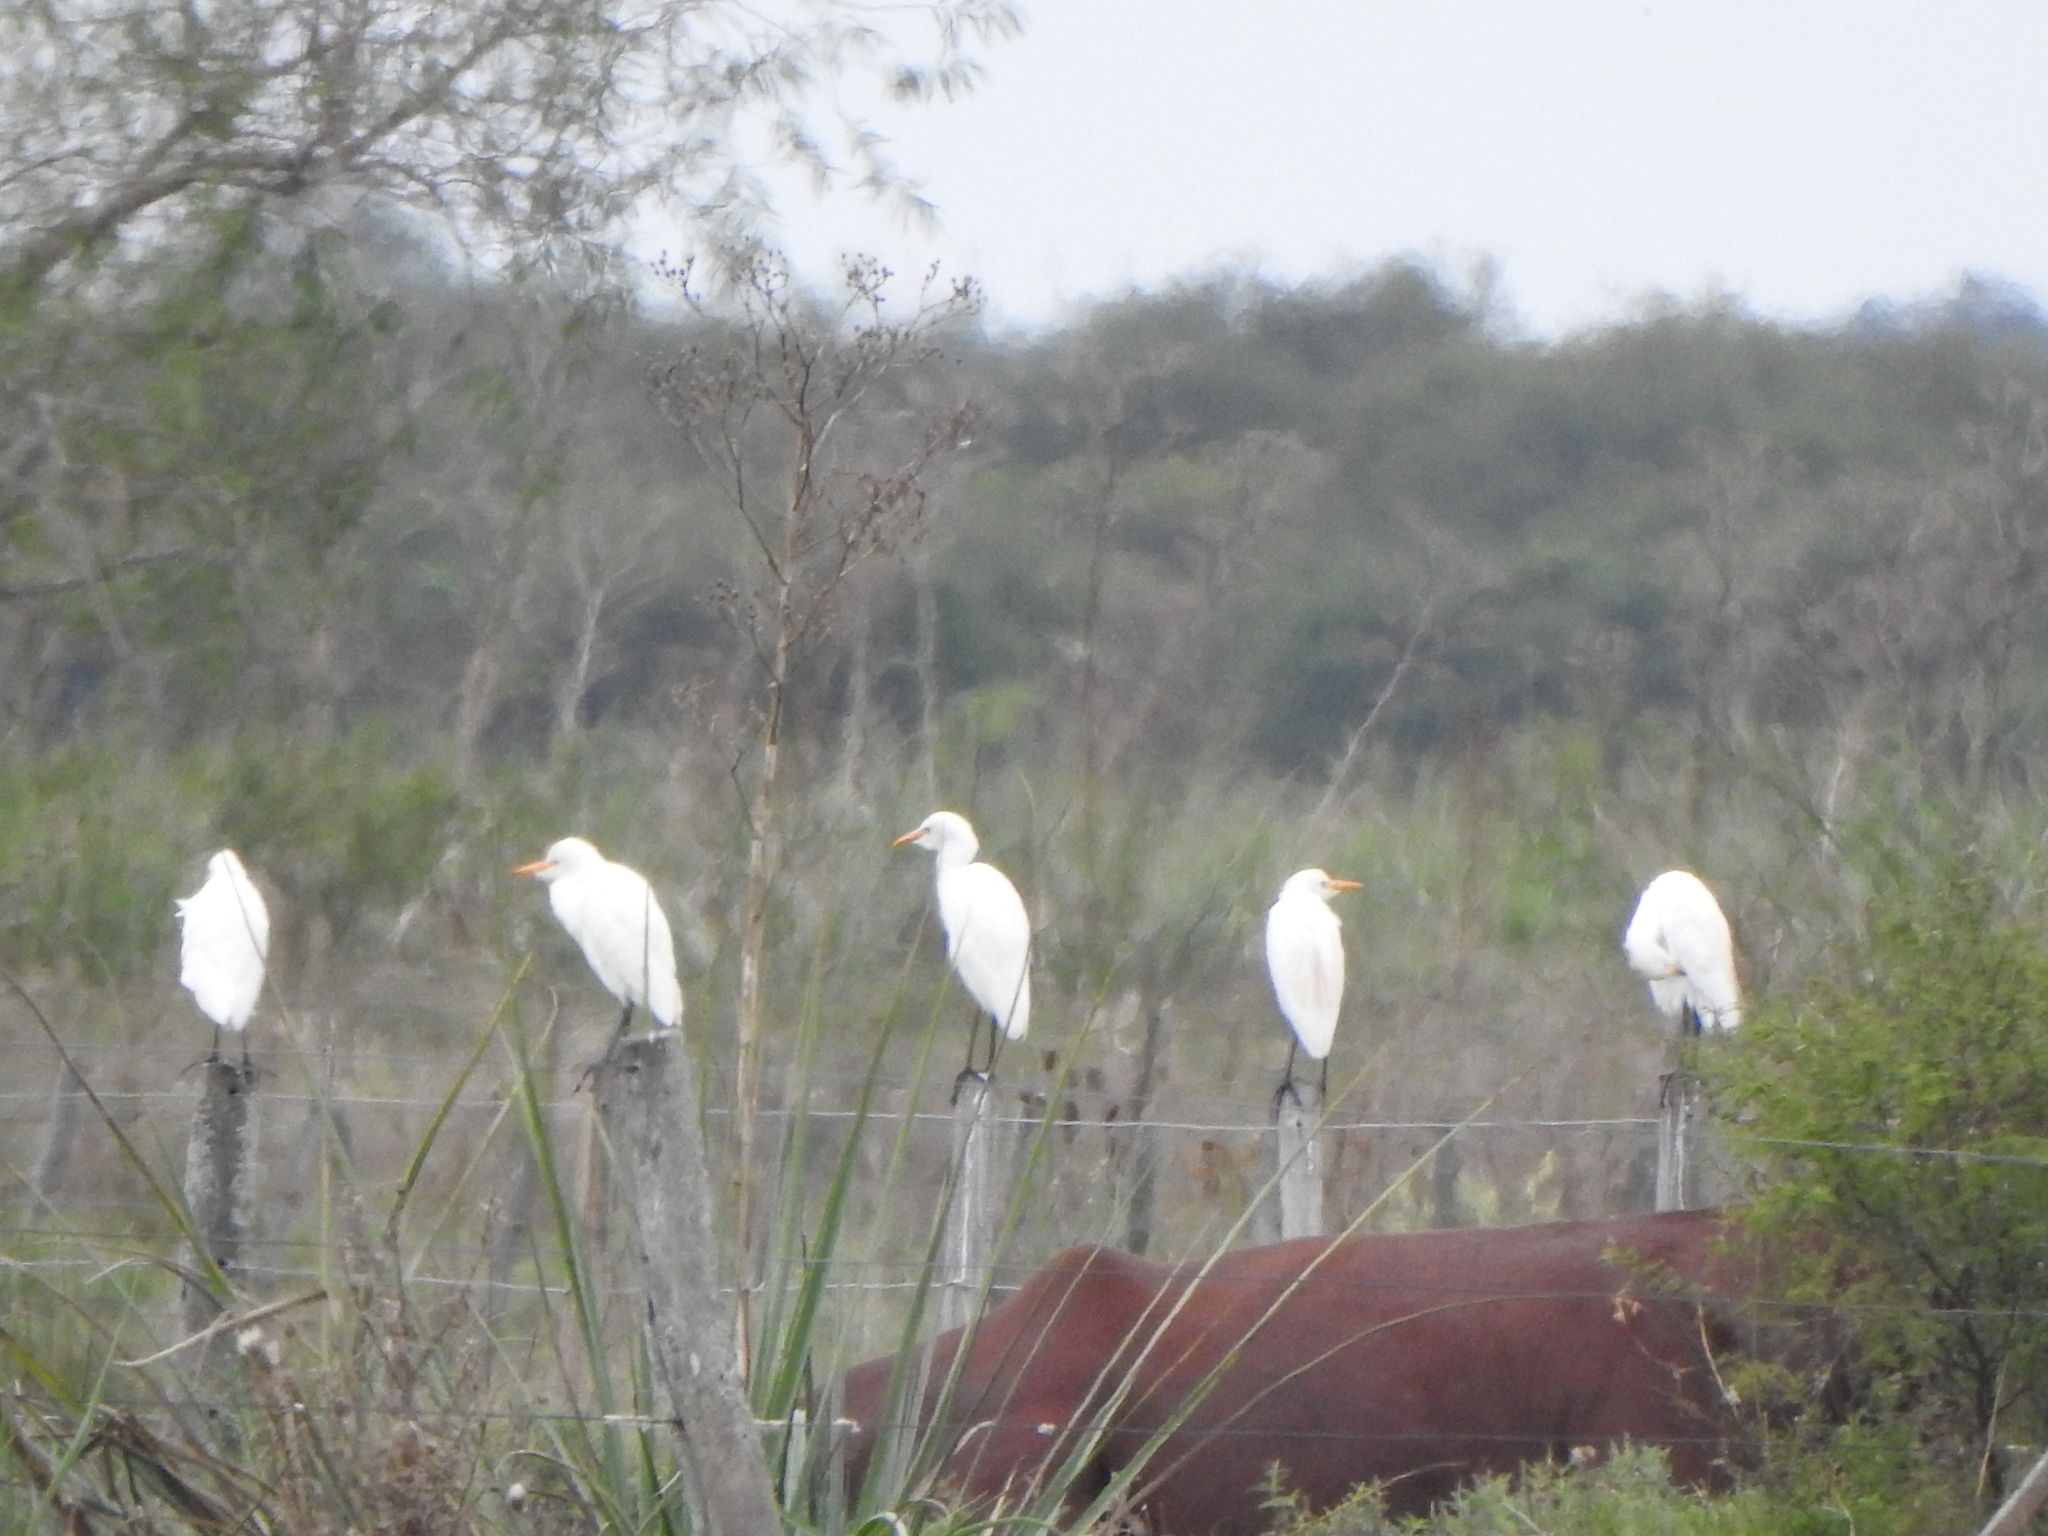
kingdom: Animalia
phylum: Chordata
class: Aves
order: Pelecaniformes
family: Ardeidae
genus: Bubulcus
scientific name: Bubulcus ibis
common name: Cattle egret
